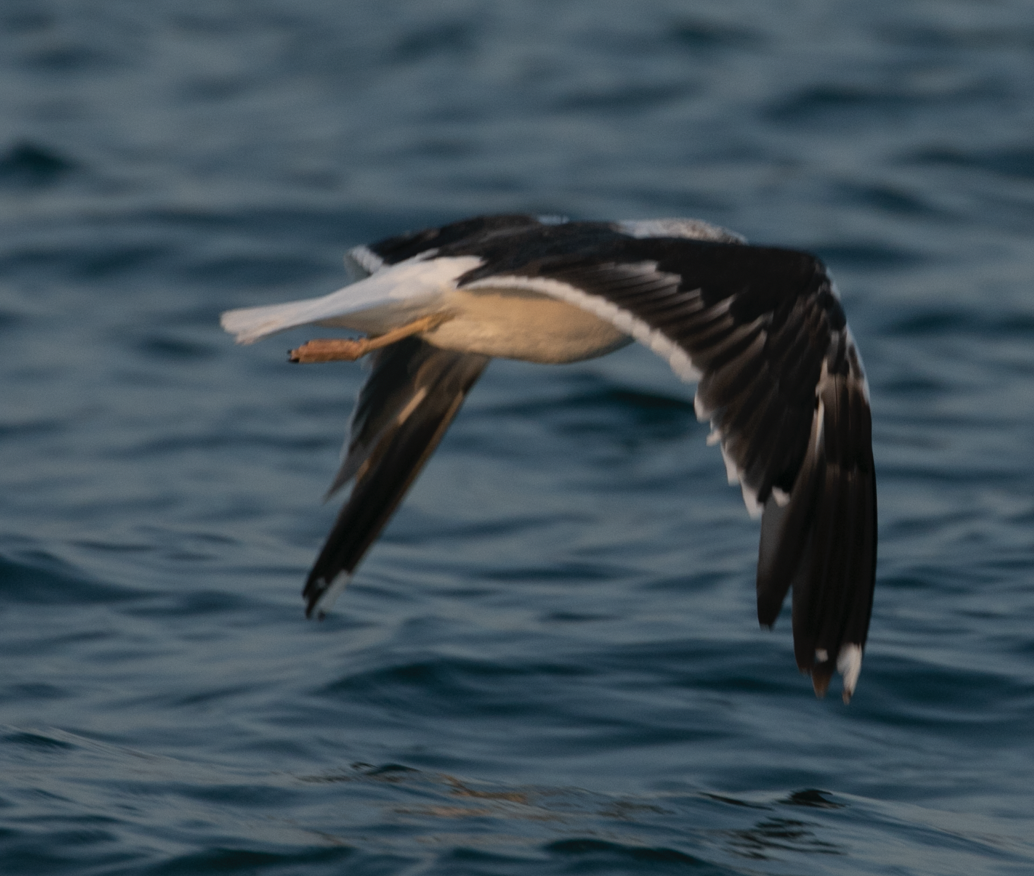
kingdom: Animalia
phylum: Chordata
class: Aves
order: Charadriiformes
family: Laridae
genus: Larus
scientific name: Larus fuscus
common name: Lesser black-backed gull
